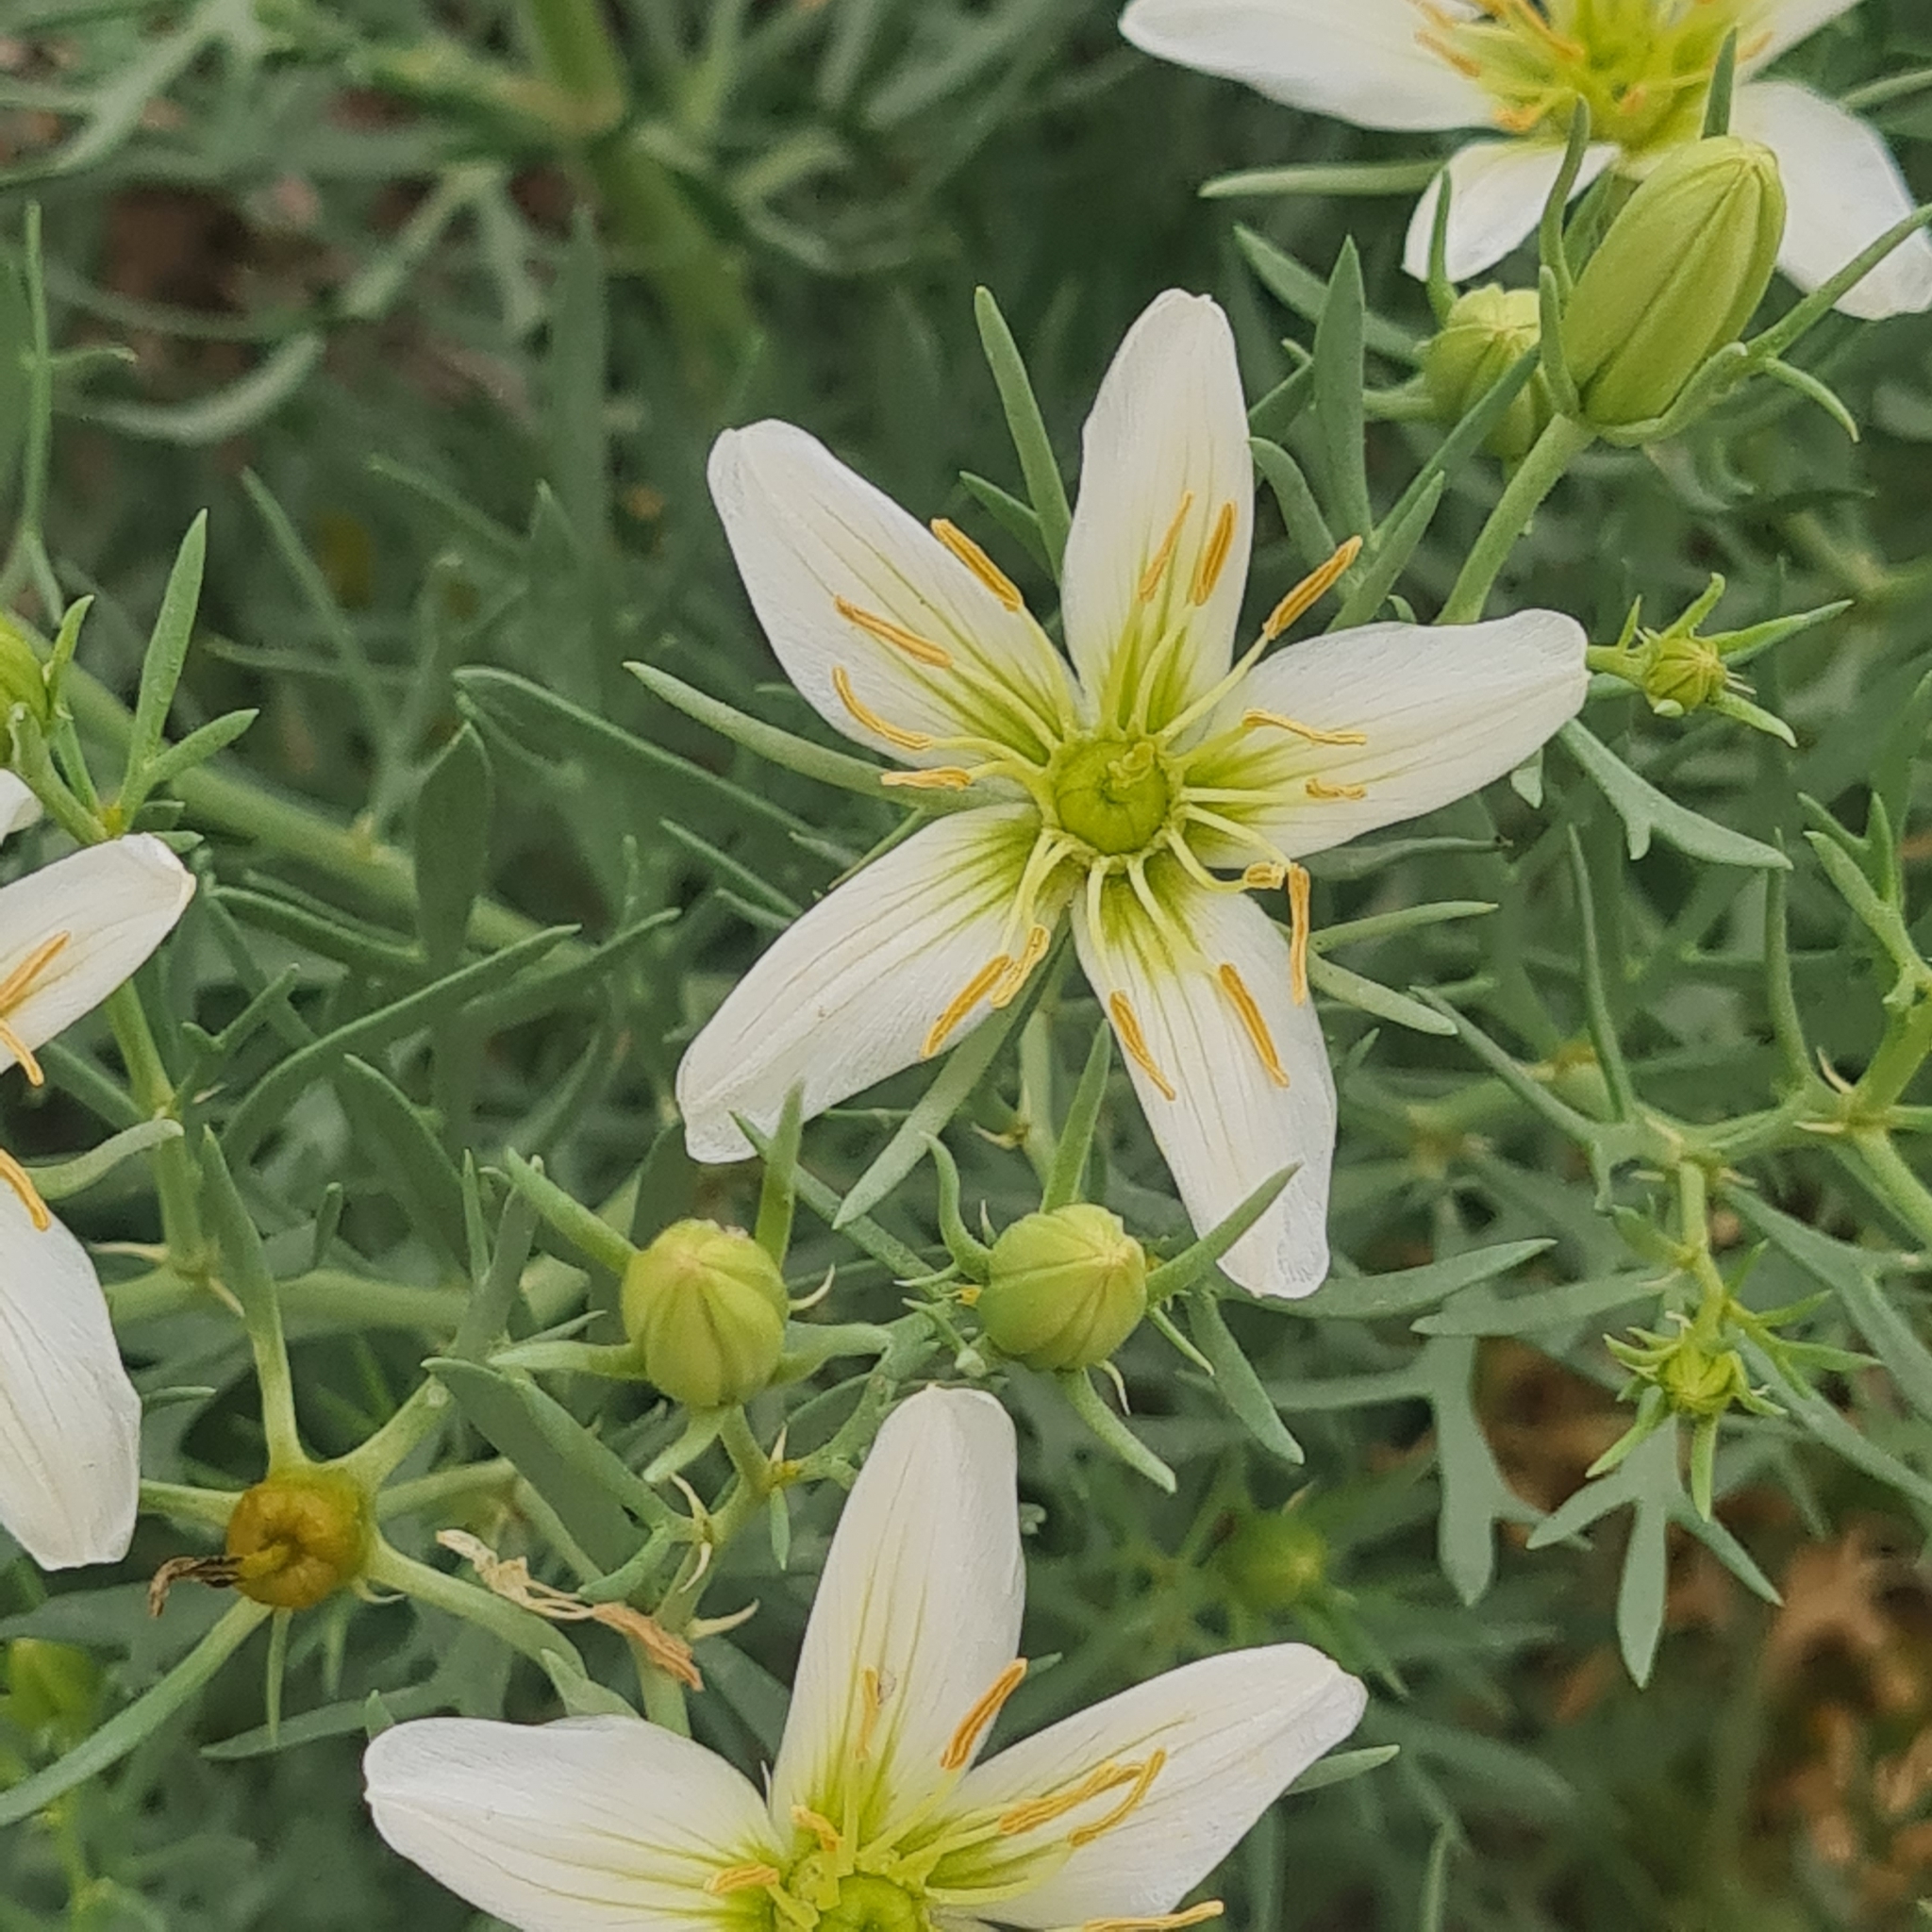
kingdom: Plantae
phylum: Tracheophyta
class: Magnoliopsida
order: Sapindales
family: Tetradiclidaceae
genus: Peganum
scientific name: Peganum harmala
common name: Harmal peganum
